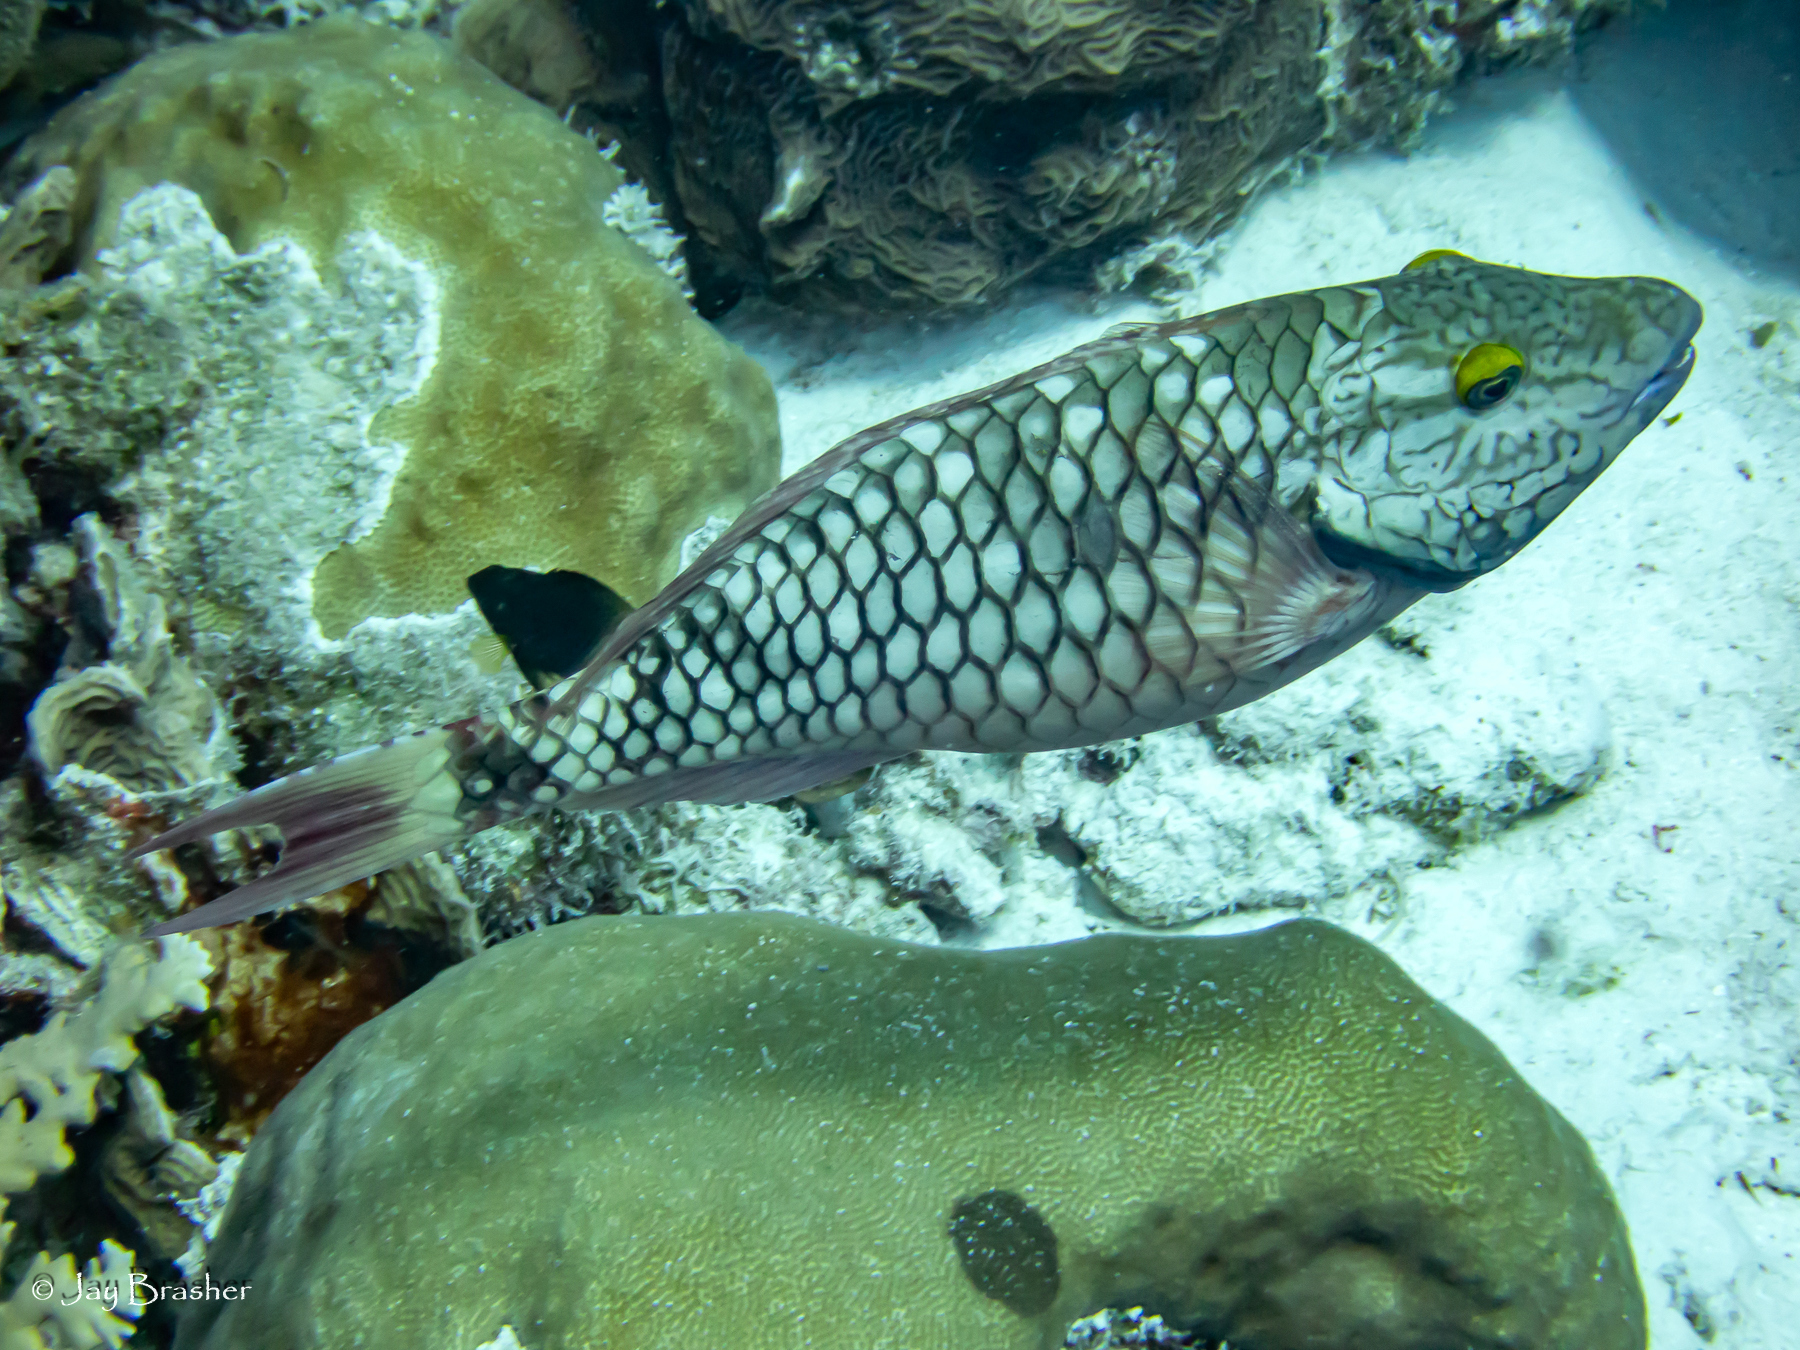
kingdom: Animalia
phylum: Chordata
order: Perciformes
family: Scaridae
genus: Sparisoma
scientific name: Sparisoma viride
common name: Stoplight parrotfish
